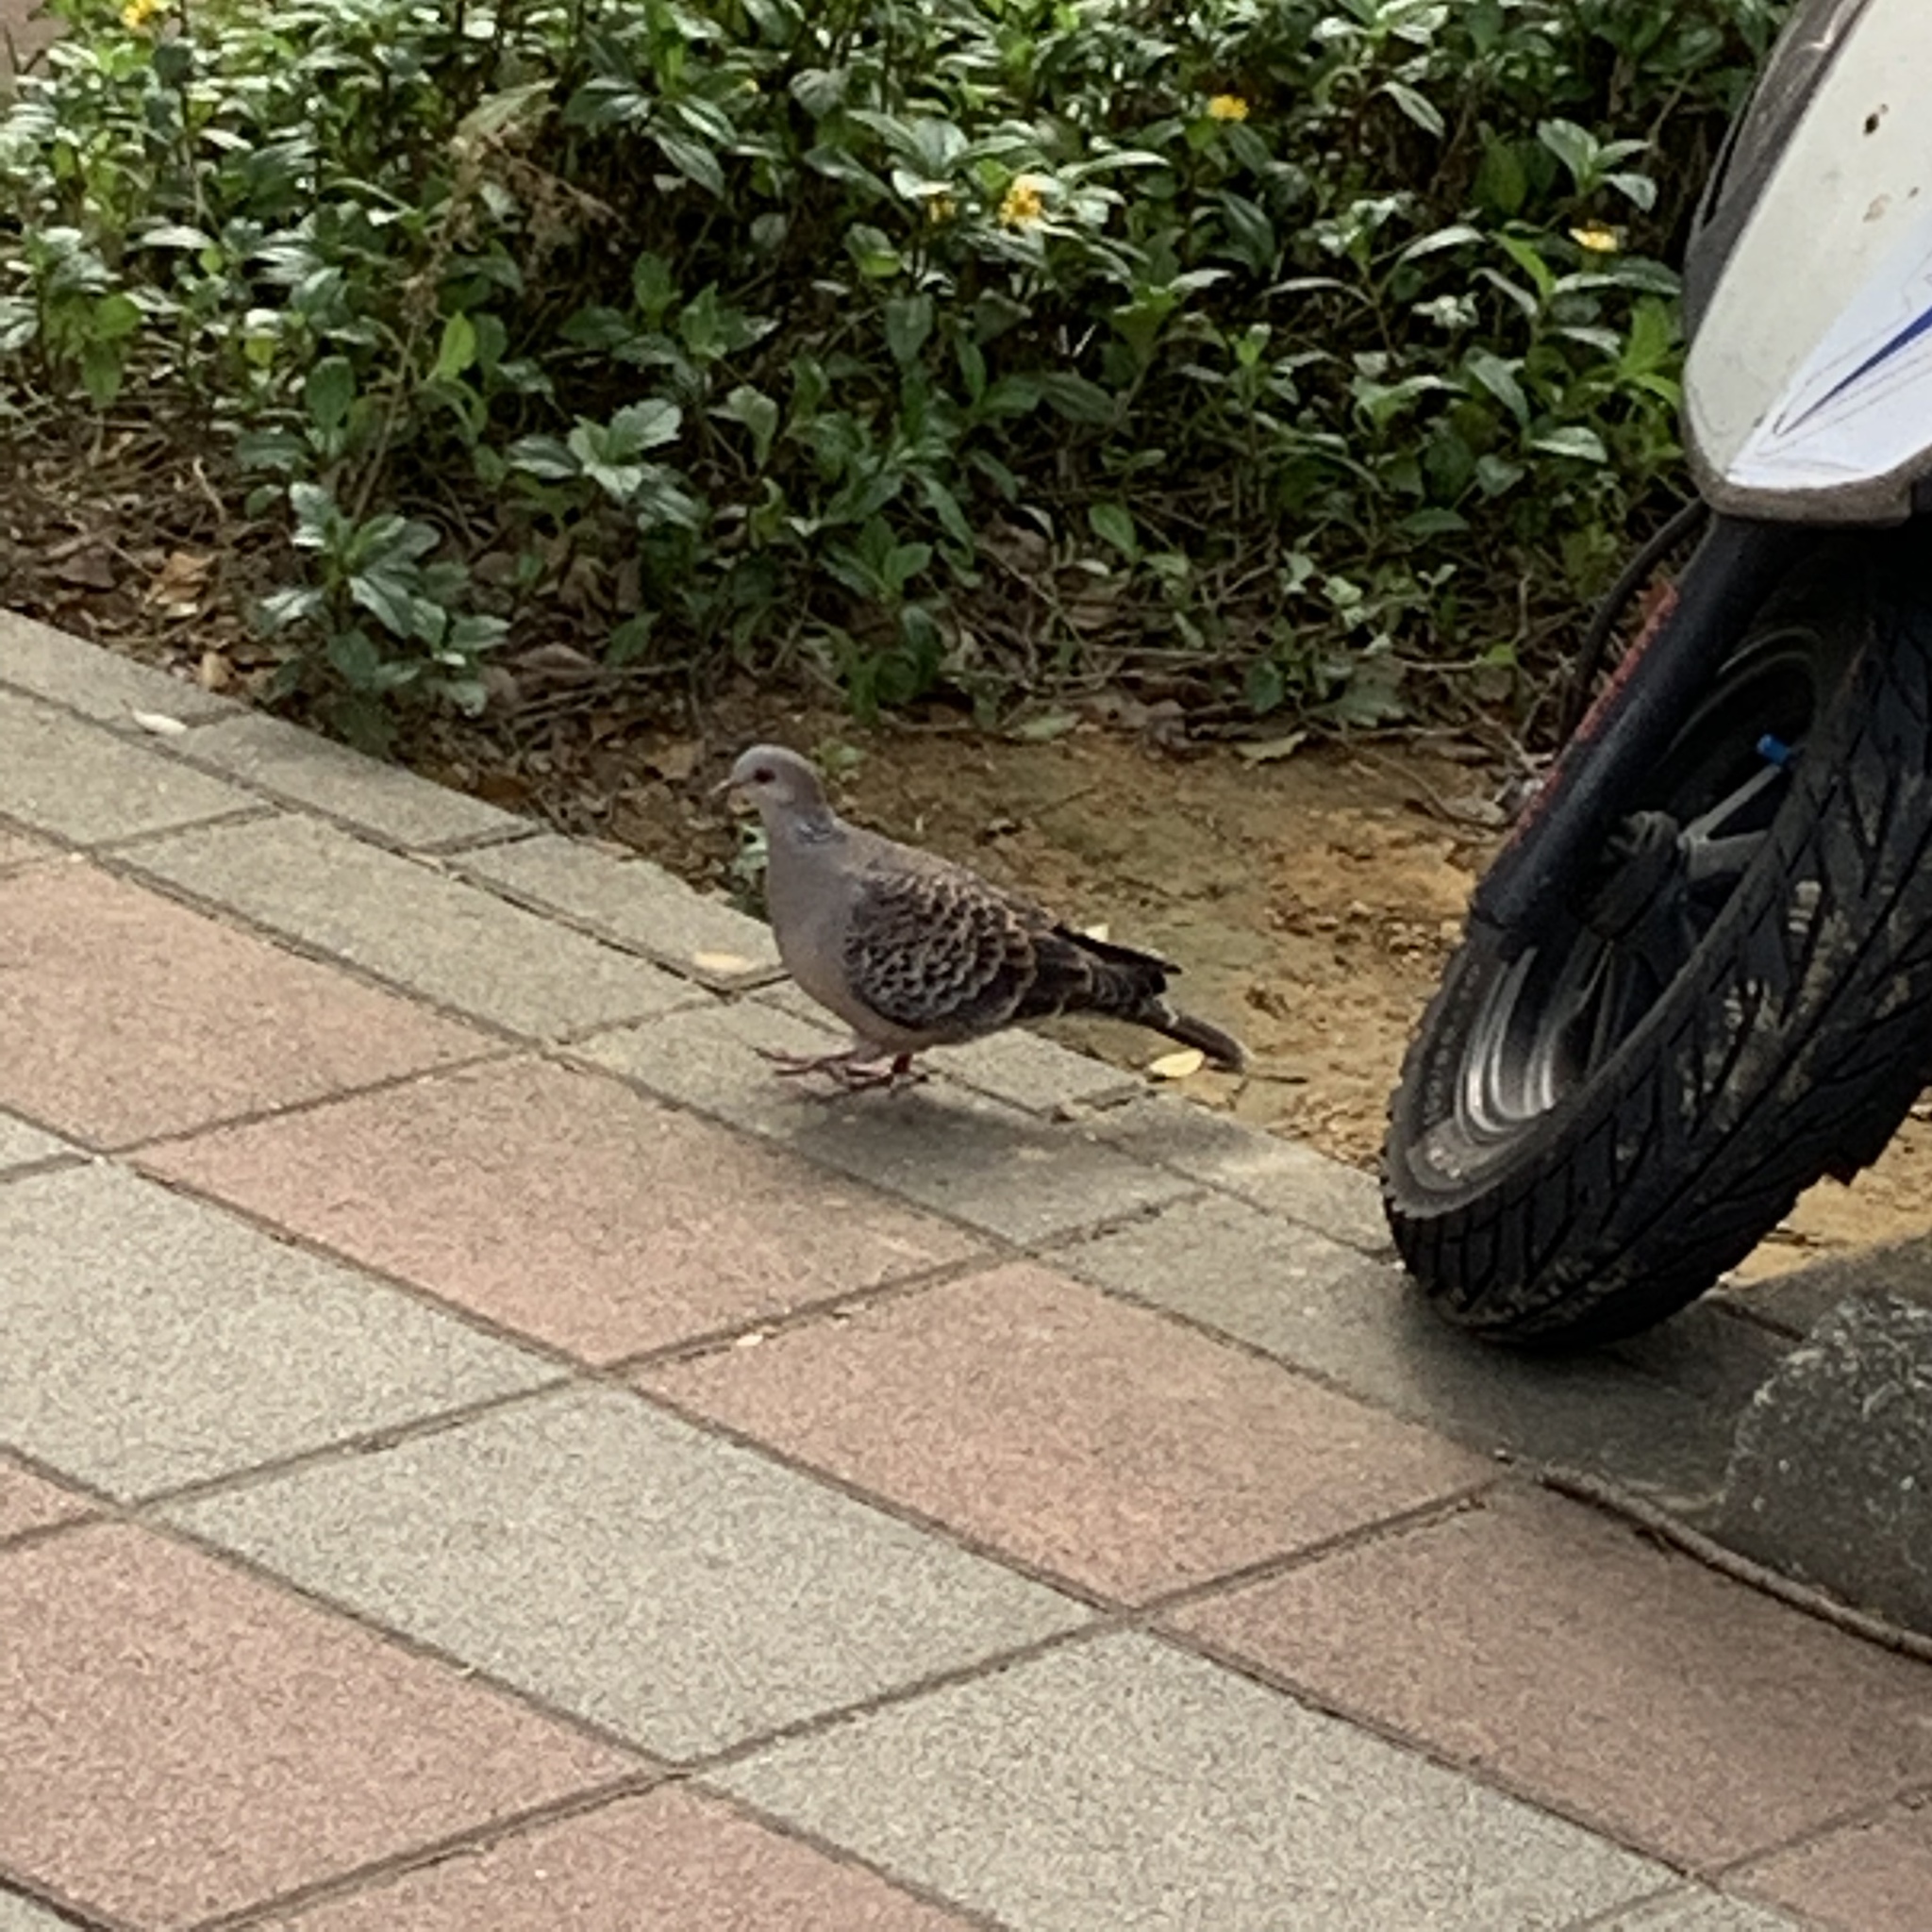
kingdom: Animalia
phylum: Chordata
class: Aves
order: Columbiformes
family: Columbidae
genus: Streptopelia
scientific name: Streptopelia orientalis
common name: Oriental turtle dove
